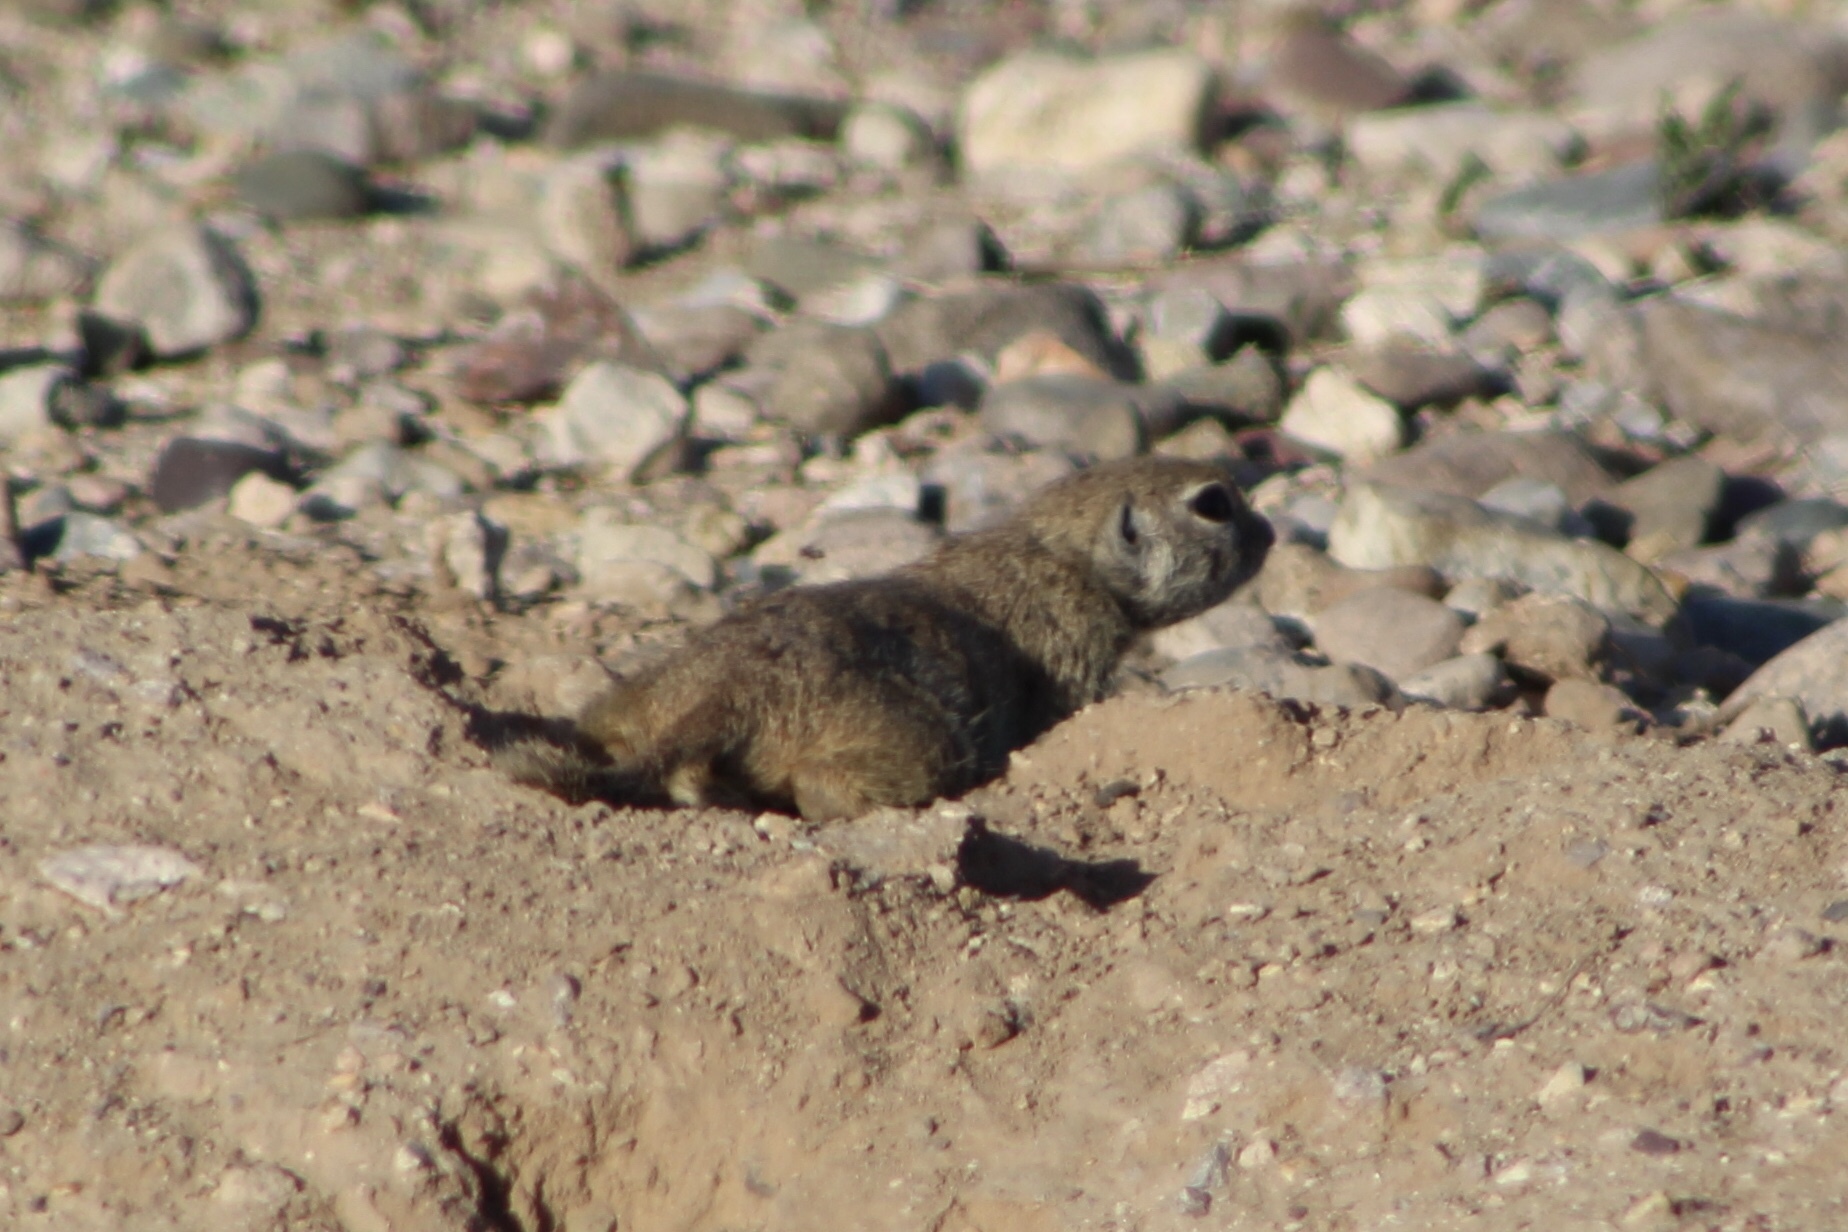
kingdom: Animalia
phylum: Chordata
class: Mammalia
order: Rodentia
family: Sciuridae
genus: Xerospermophilus
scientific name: Xerospermophilus tereticaudus
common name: Round-tailed ground squirrel
